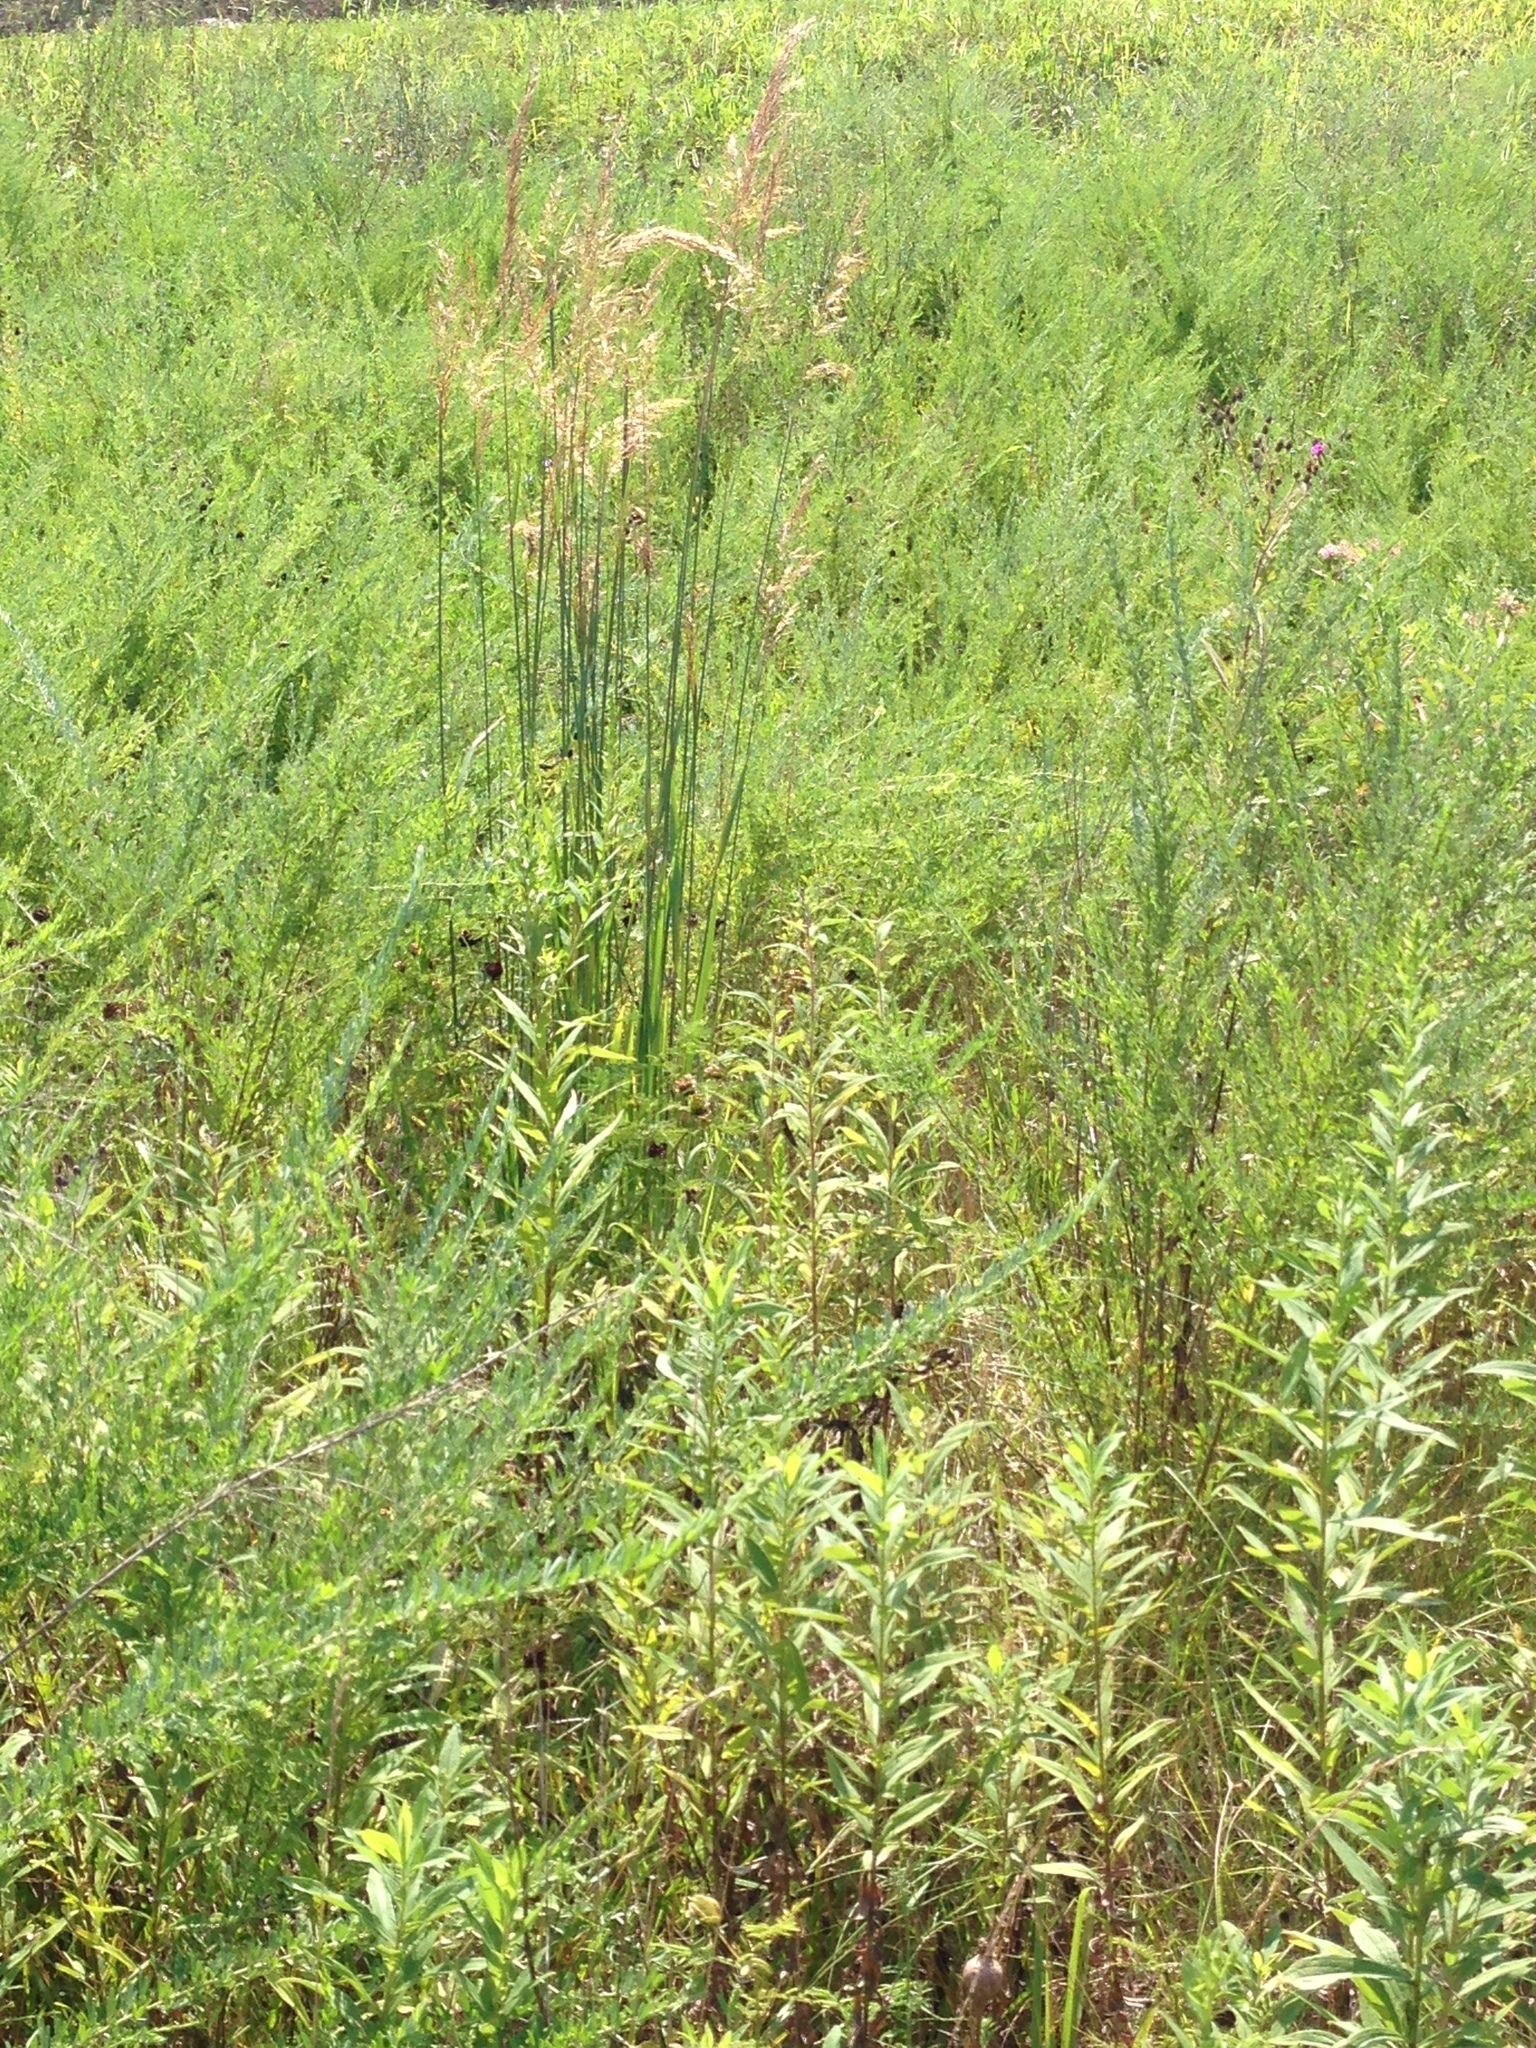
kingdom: Plantae
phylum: Tracheophyta
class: Liliopsida
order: Poales
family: Poaceae
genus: Sorghastrum
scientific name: Sorghastrum nutans
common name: Indian grass
